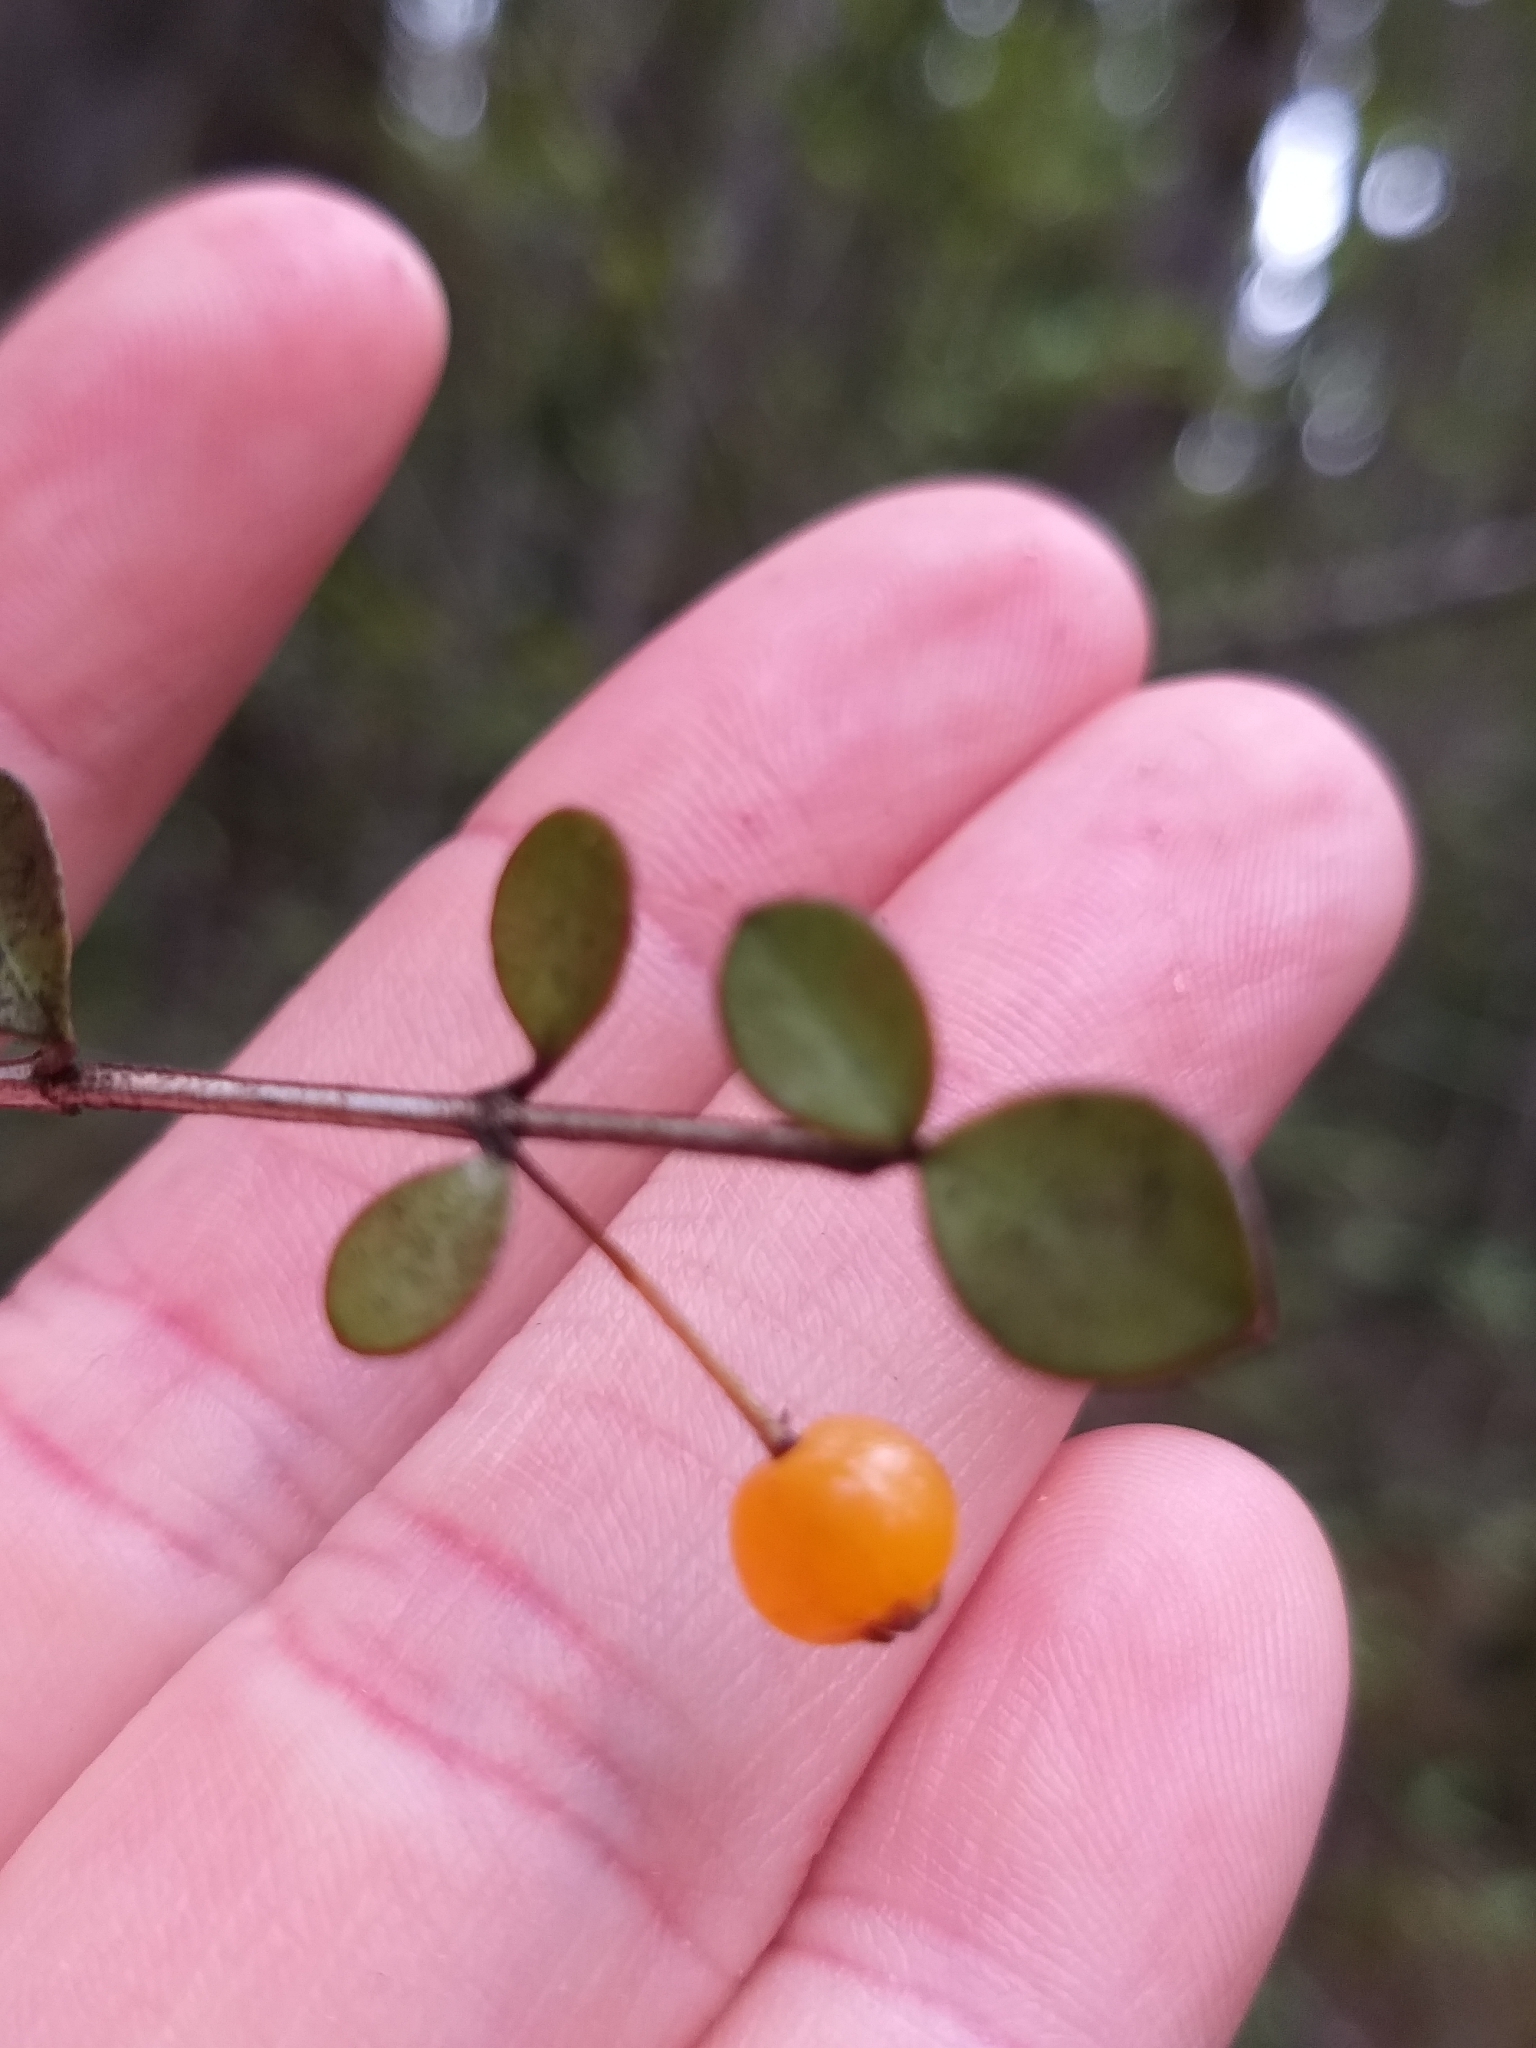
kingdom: Plantae
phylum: Tracheophyta
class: Magnoliopsida
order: Myrtales
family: Myrtaceae
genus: Neomyrtus
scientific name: Neomyrtus pedunculata
